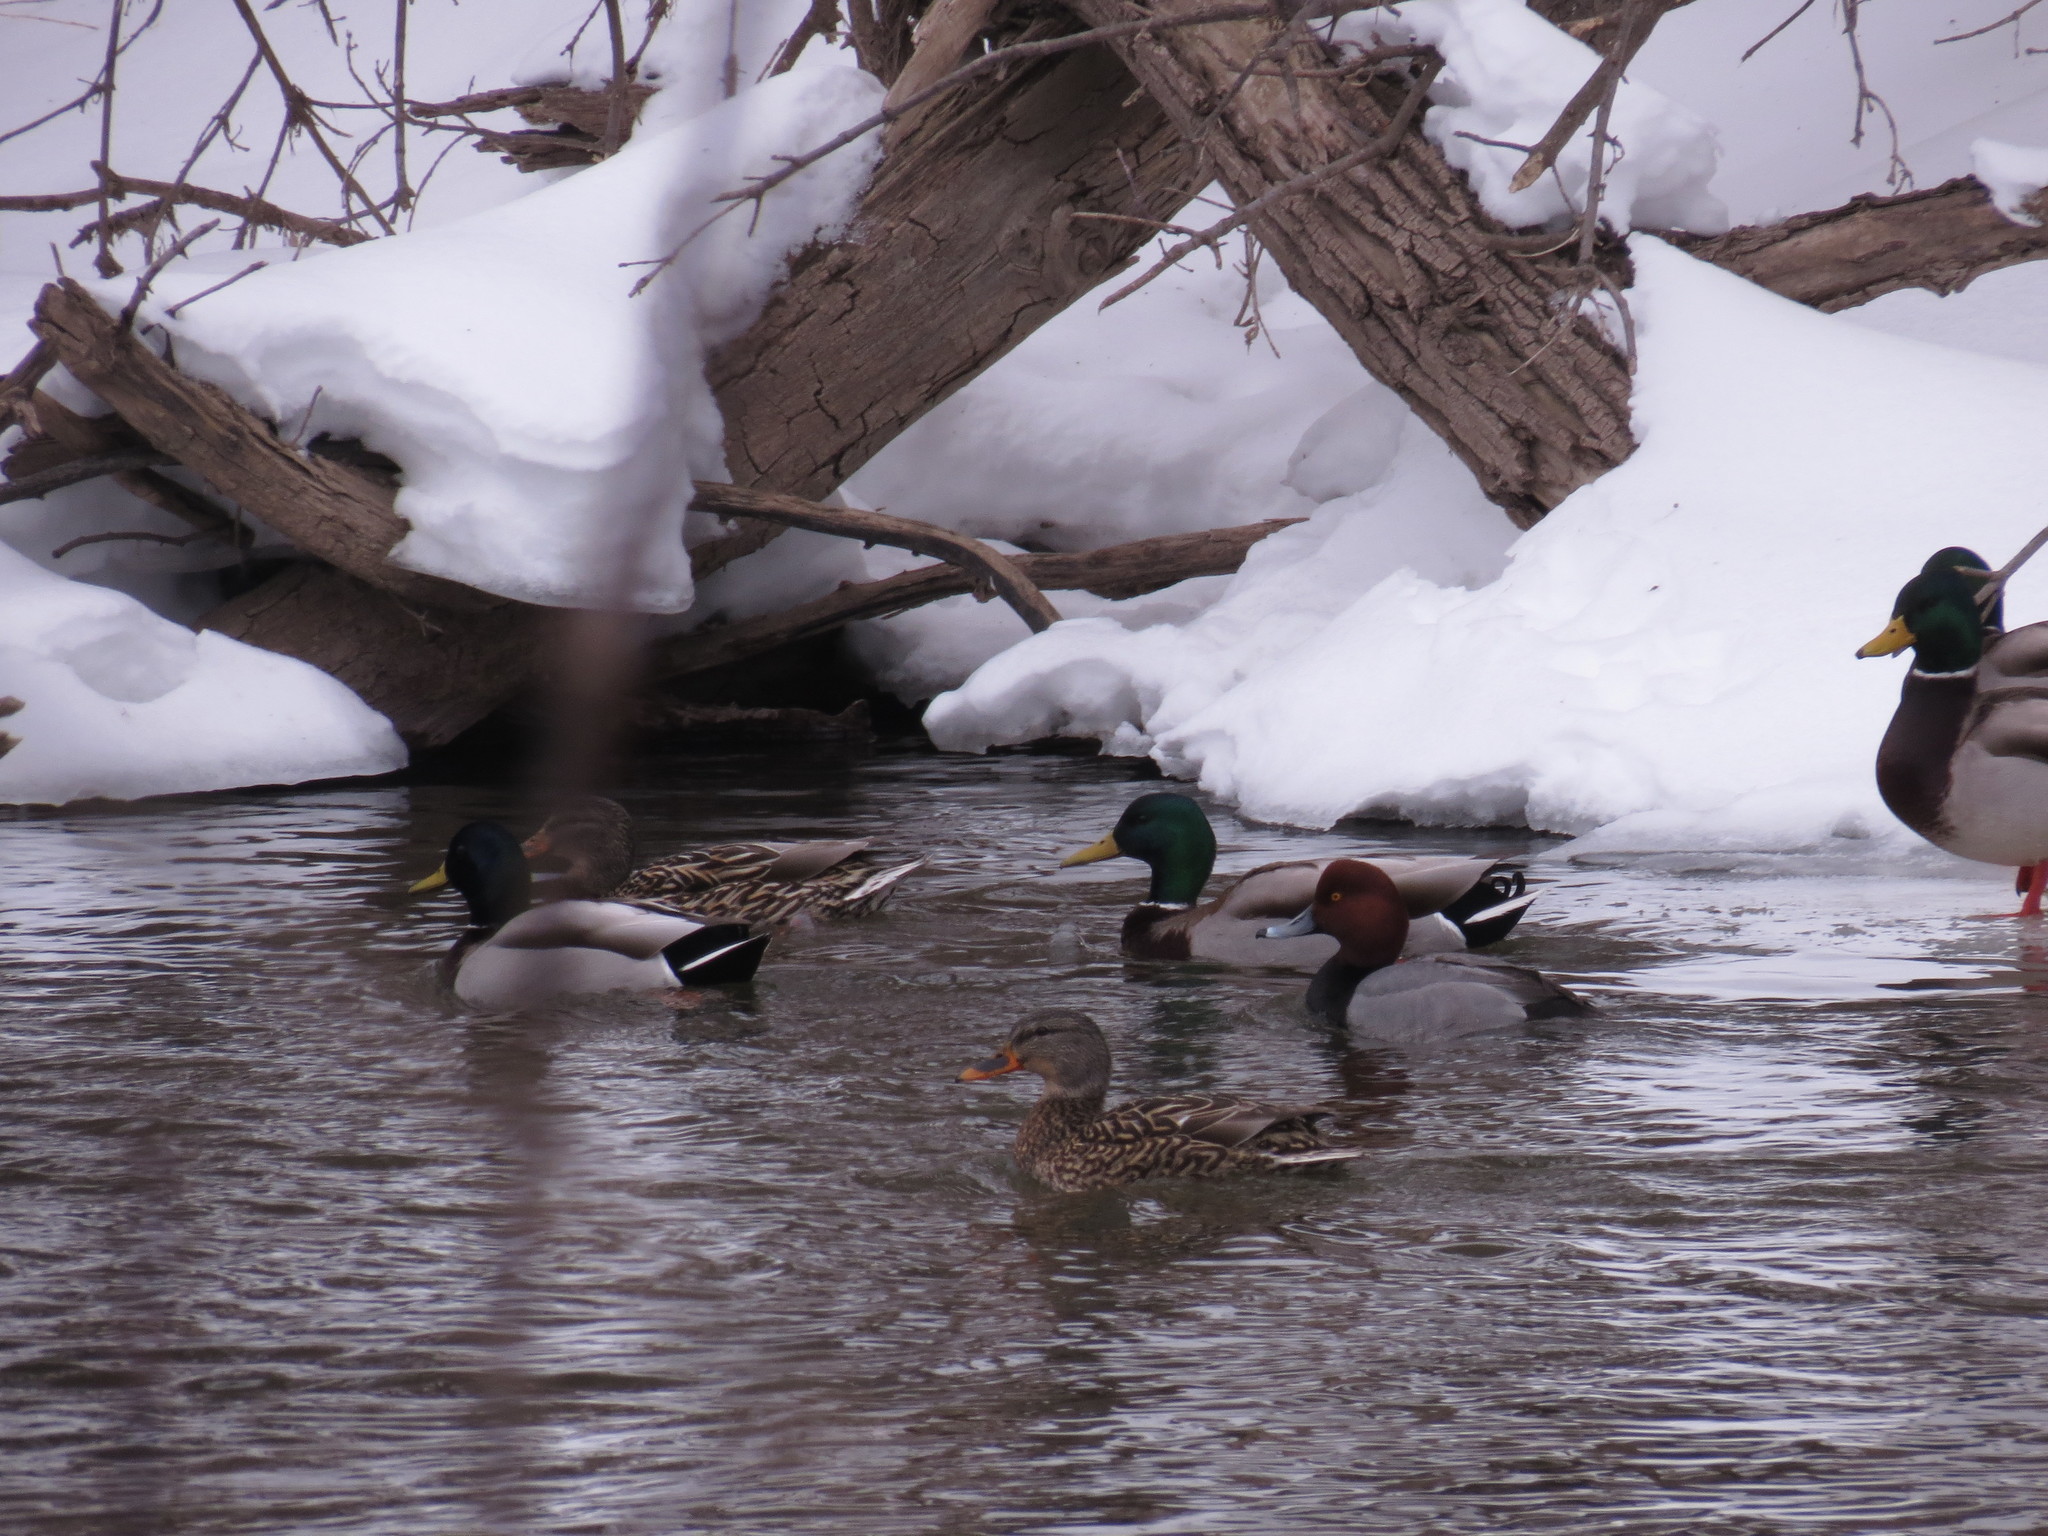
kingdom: Animalia
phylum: Chordata
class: Aves
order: Anseriformes
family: Anatidae
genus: Aythya
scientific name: Aythya americana
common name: Redhead
